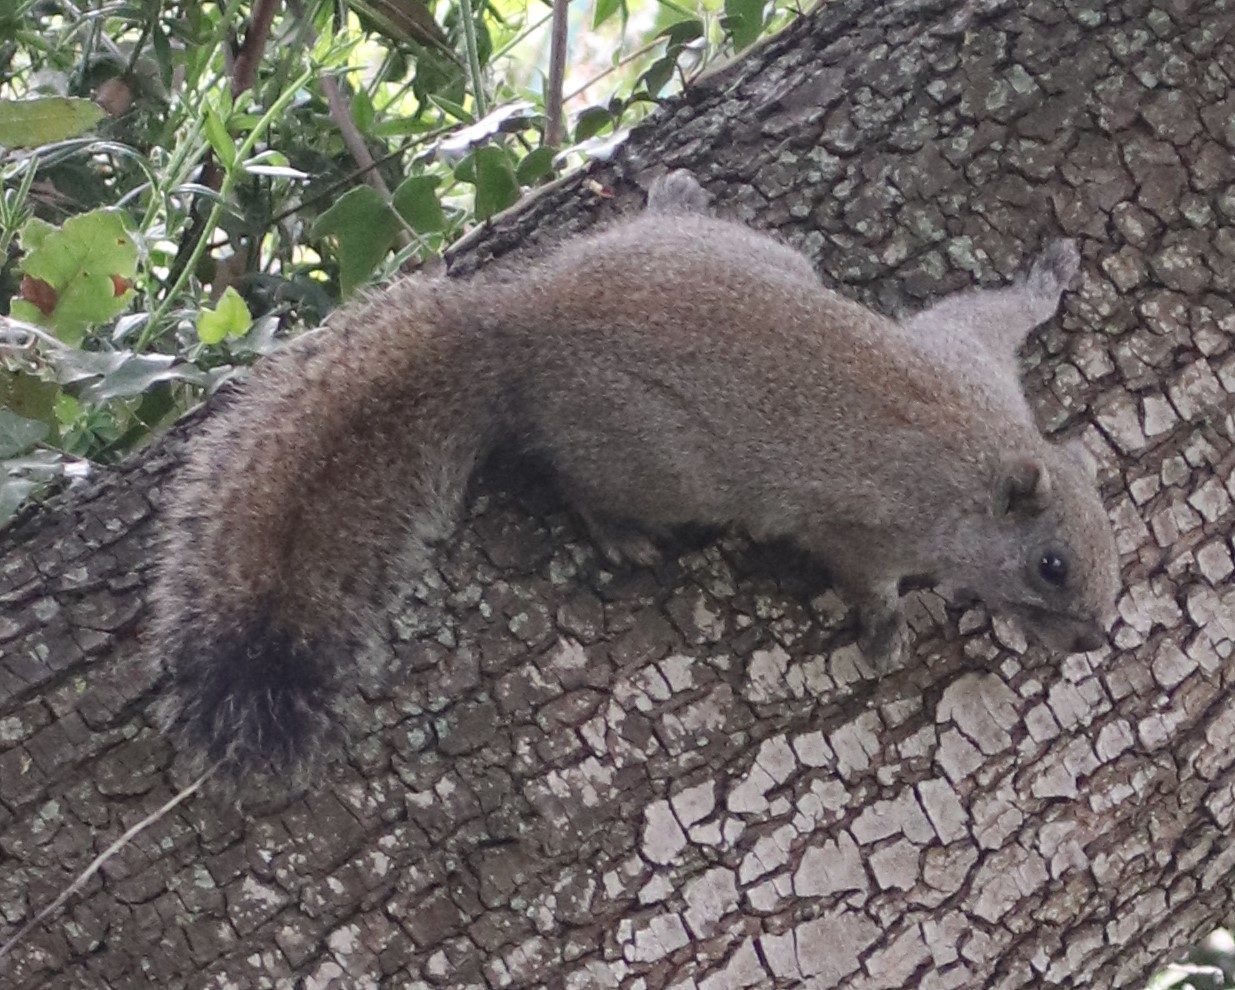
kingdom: Animalia
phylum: Chordata
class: Mammalia
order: Rodentia
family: Sciuridae
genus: Callosciurus
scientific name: Callosciurus erythraeus
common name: Pallas's squirrel
